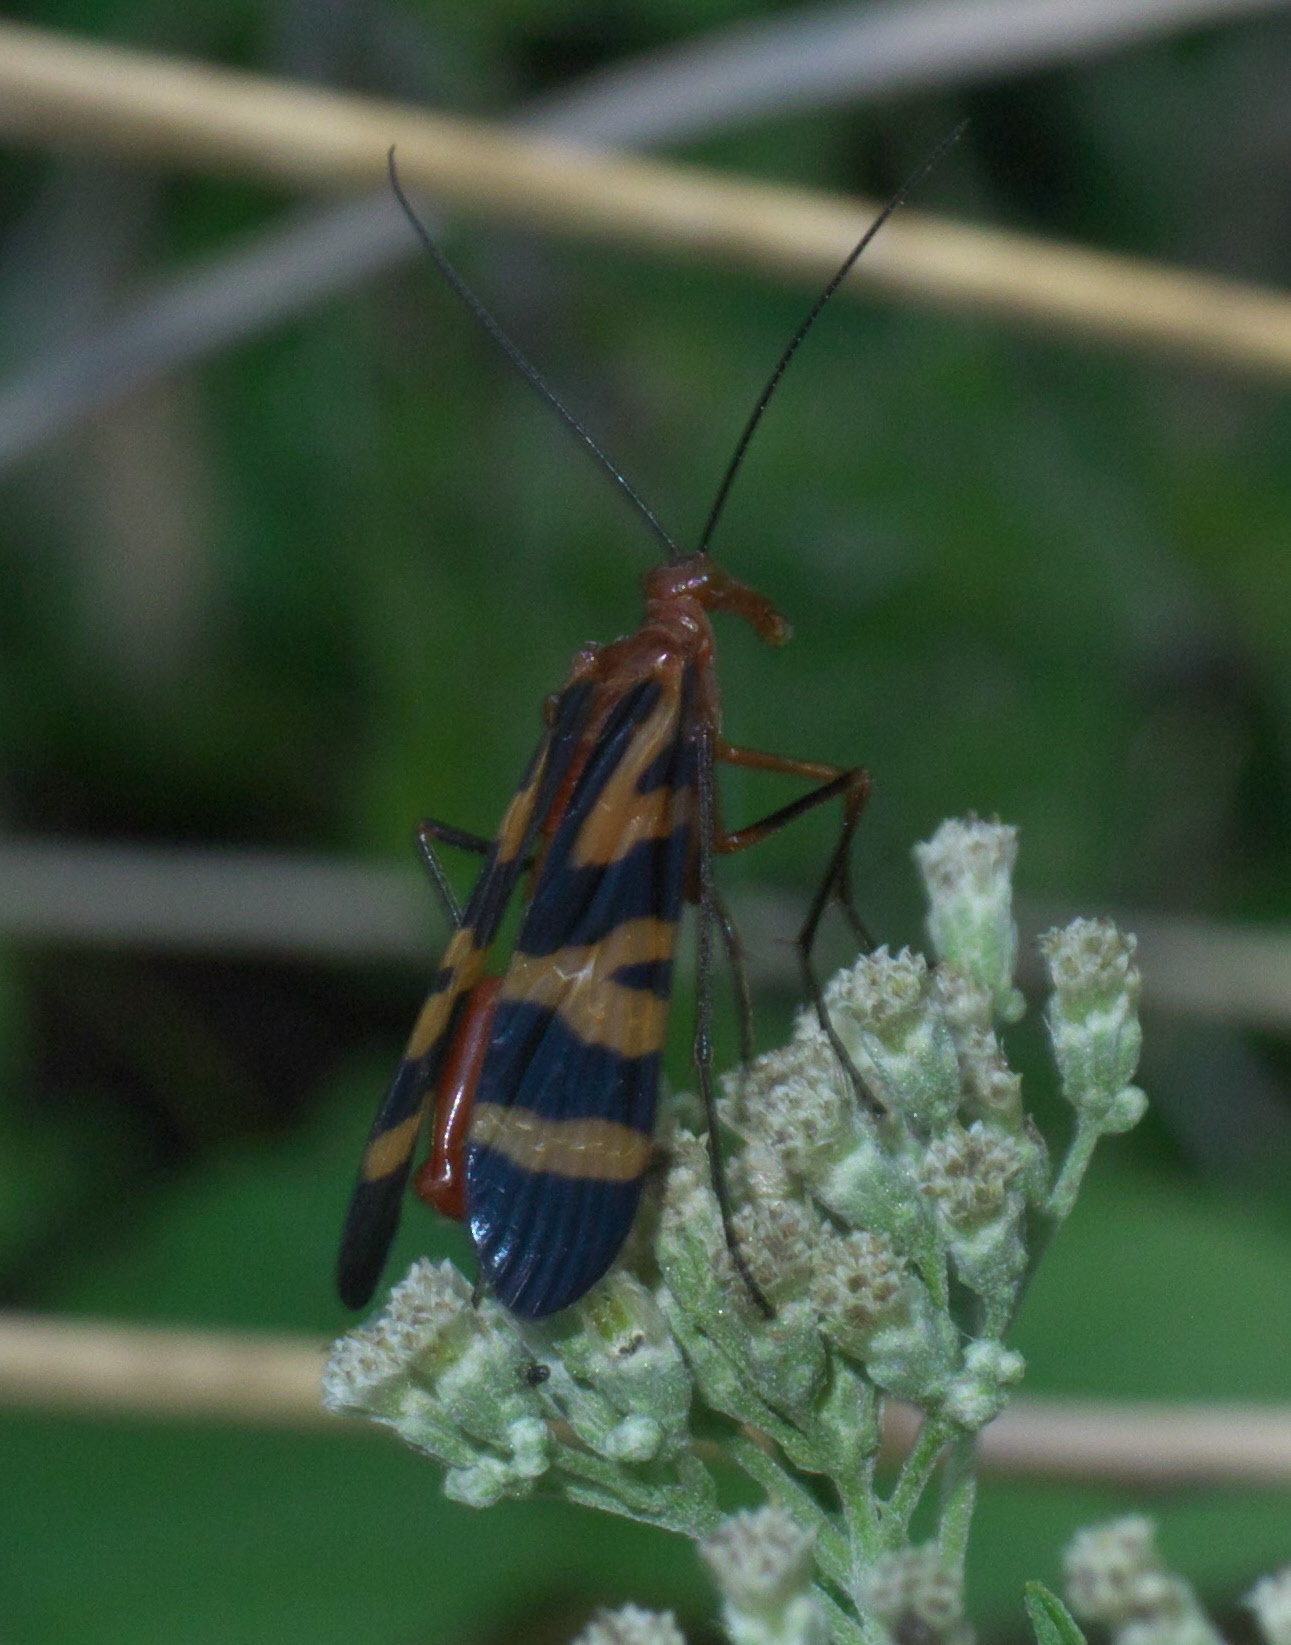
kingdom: Animalia
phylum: Arthropoda
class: Insecta
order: Mecoptera
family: Panorpidae
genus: Panorpa
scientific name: Panorpa nuptialis
